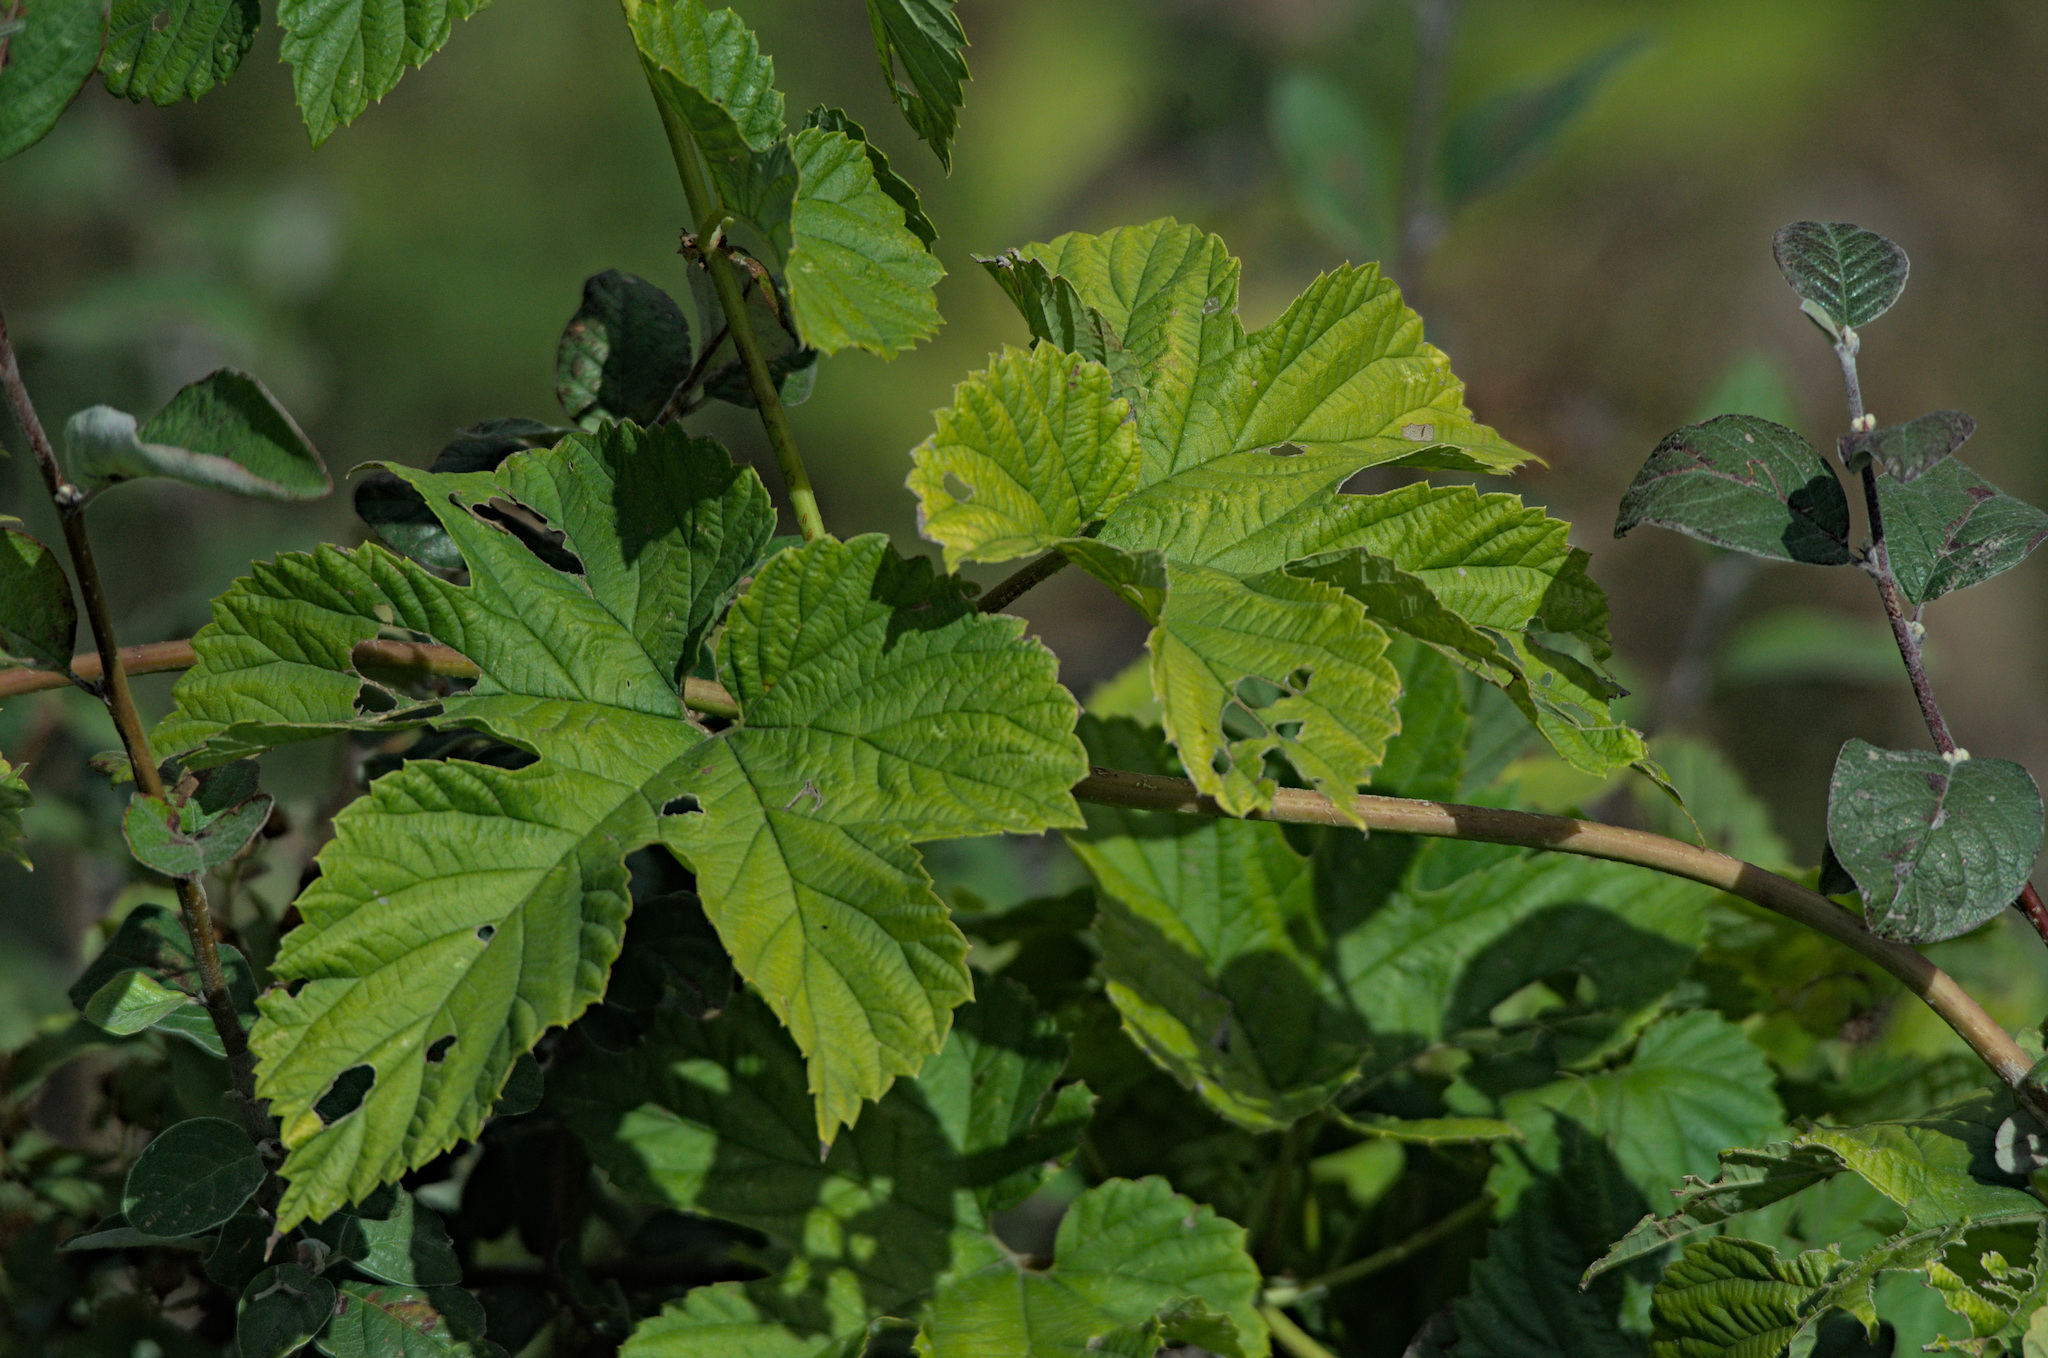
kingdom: Plantae
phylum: Tracheophyta
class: Magnoliopsida
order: Rosales
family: Cannabaceae
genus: Humulus
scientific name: Humulus lupulus
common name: Hop
